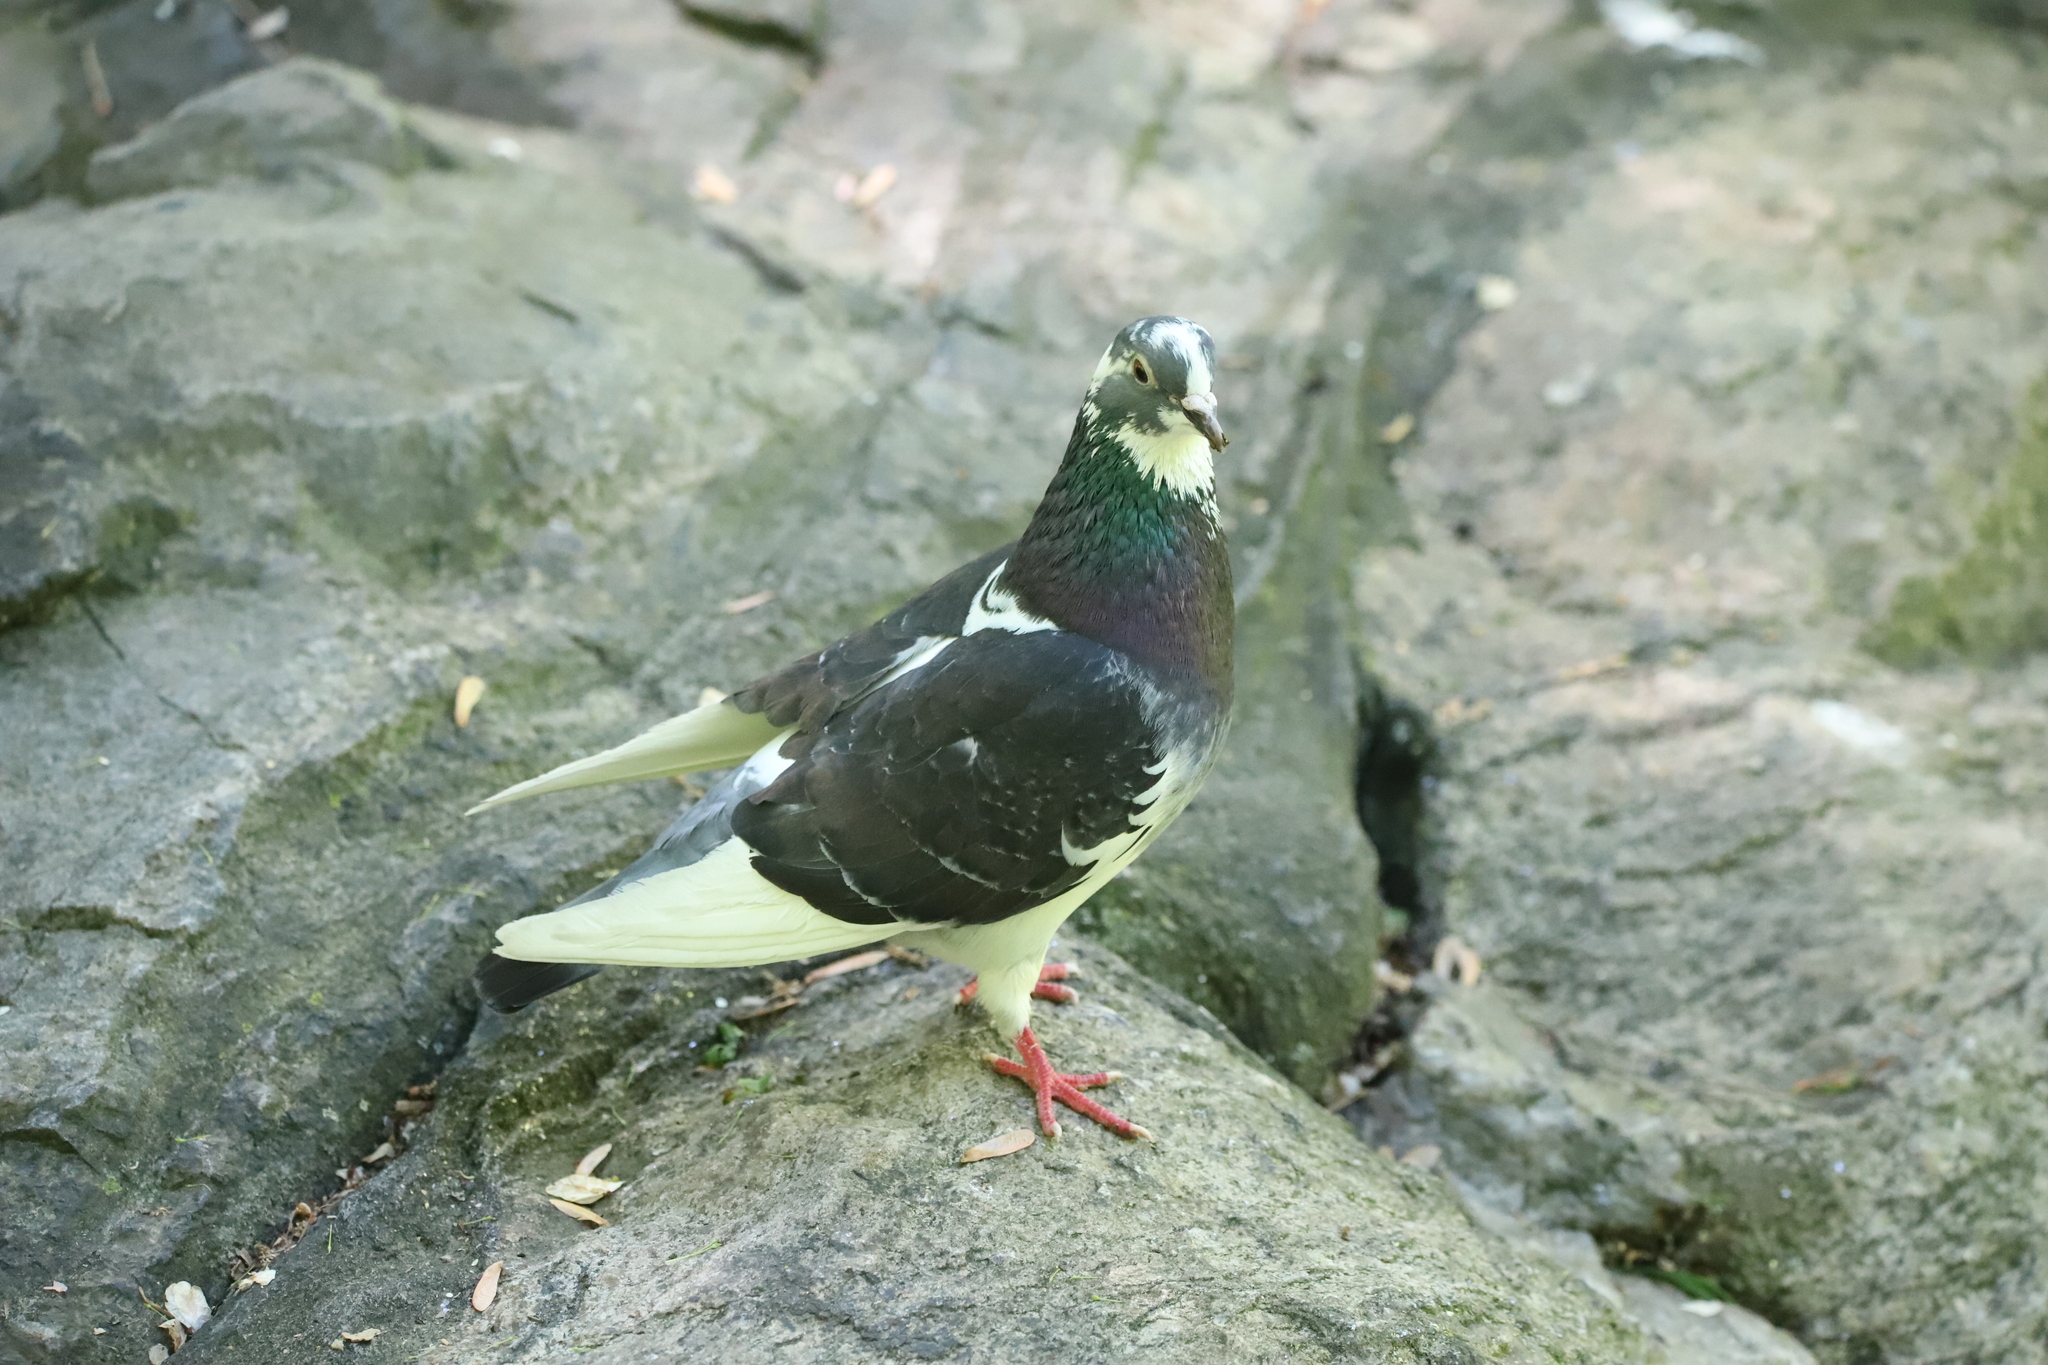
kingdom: Animalia
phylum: Chordata
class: Aves
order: Columbiformes
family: Columbidae
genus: Columba
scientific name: Columba livia
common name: Rock pigeon
